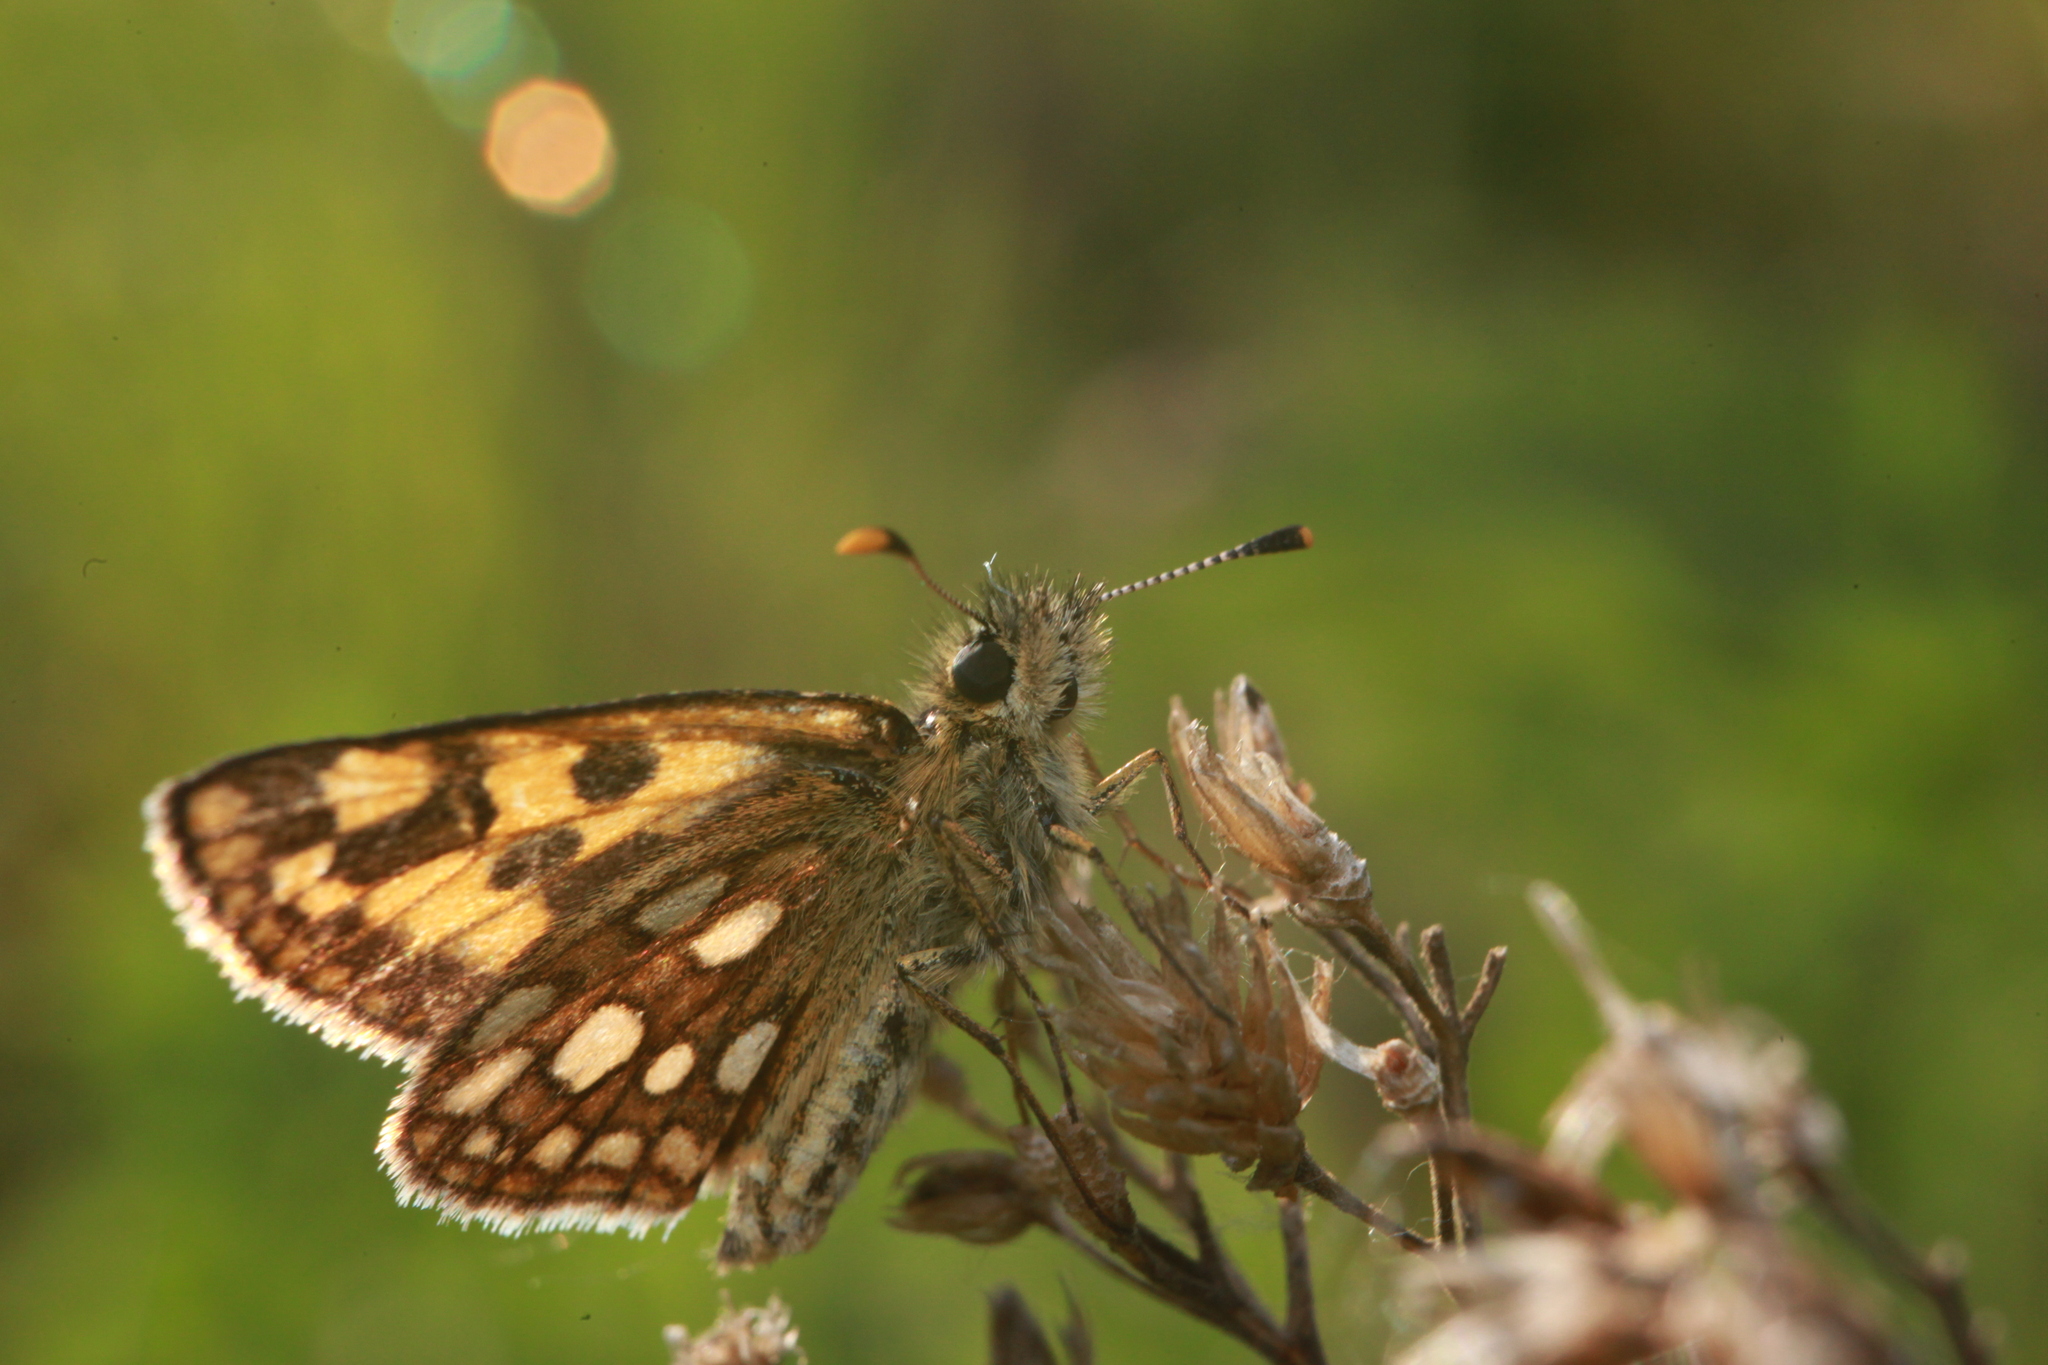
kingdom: Animalia
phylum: Arthropoda
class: Insecta
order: Lepidoptera
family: Hesperiidae
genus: Carterocephalus
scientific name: Carterocephalus palaemon
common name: Chequered skipper
